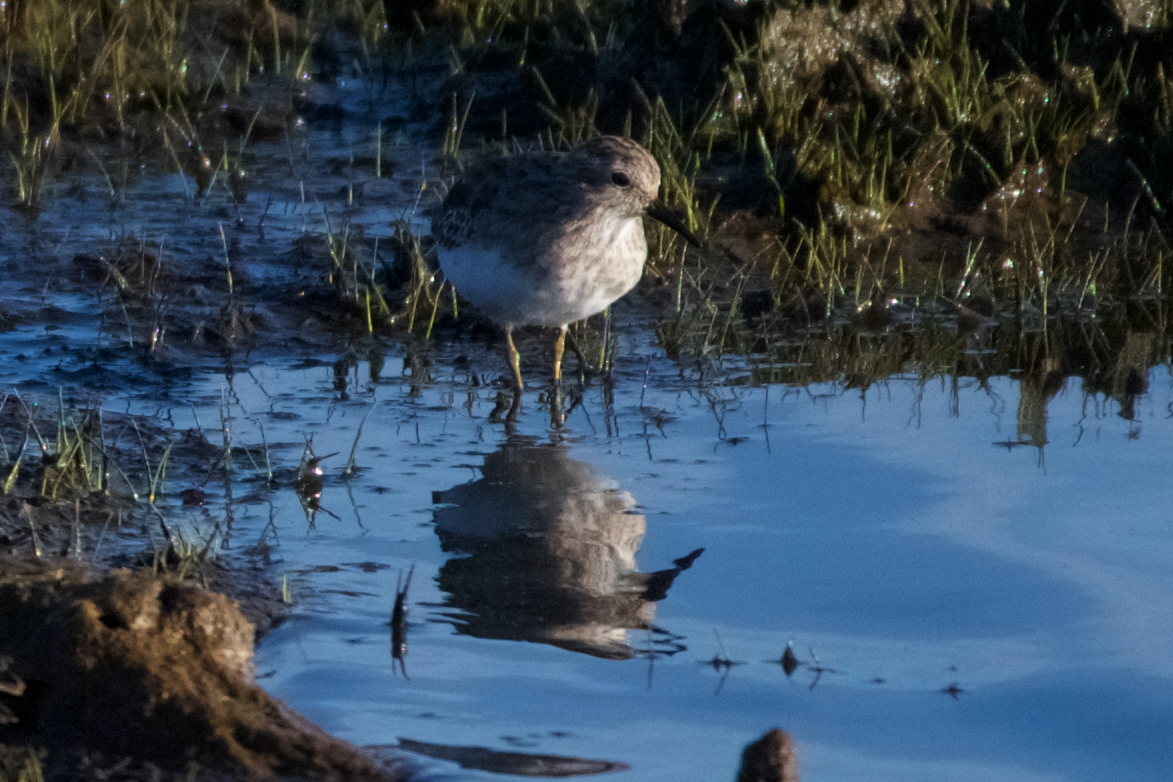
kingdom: Animalia
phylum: Chordata
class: Aves
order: Charadriiformes
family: Scolopacidae
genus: Calidris
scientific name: Calidris minutilla
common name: Least sandpiper
